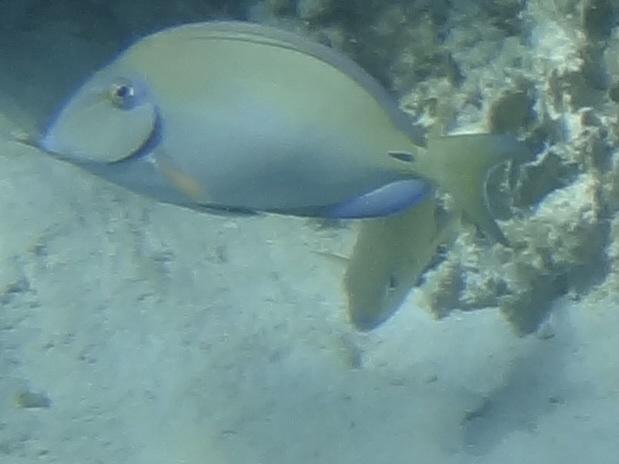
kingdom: Animalia
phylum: Chordata
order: Perciformes
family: Acanthuridae
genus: Acanthurus
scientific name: Acanthurus bahianus
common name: Ocean surgeon
